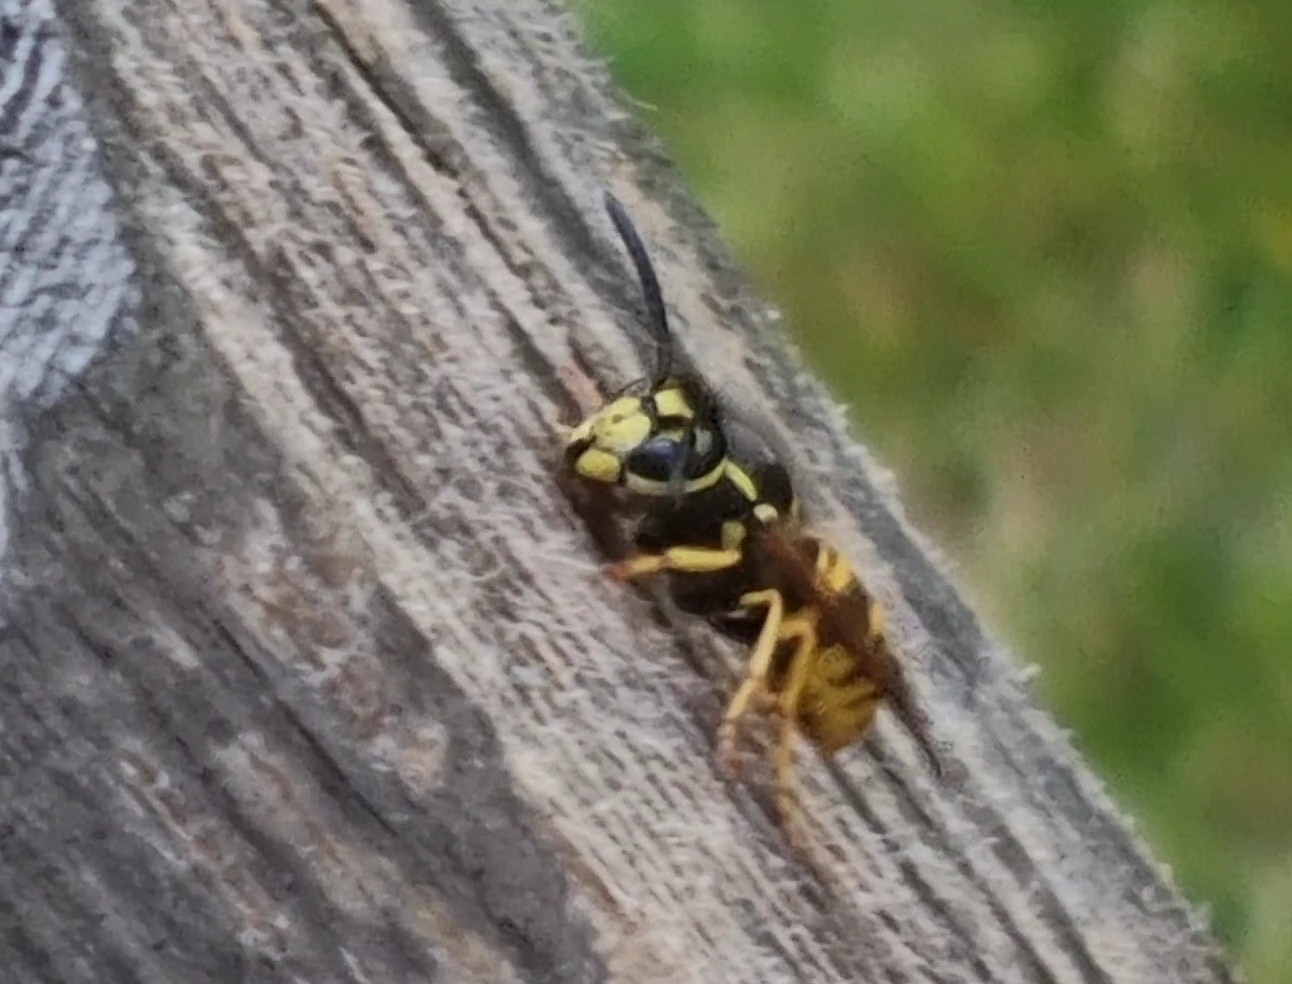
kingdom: Animalia
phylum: Arthropoda
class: Insecta
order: Hymenoptera
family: Vespidae
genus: Vespula
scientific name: Vespula germanica
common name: German wasp
